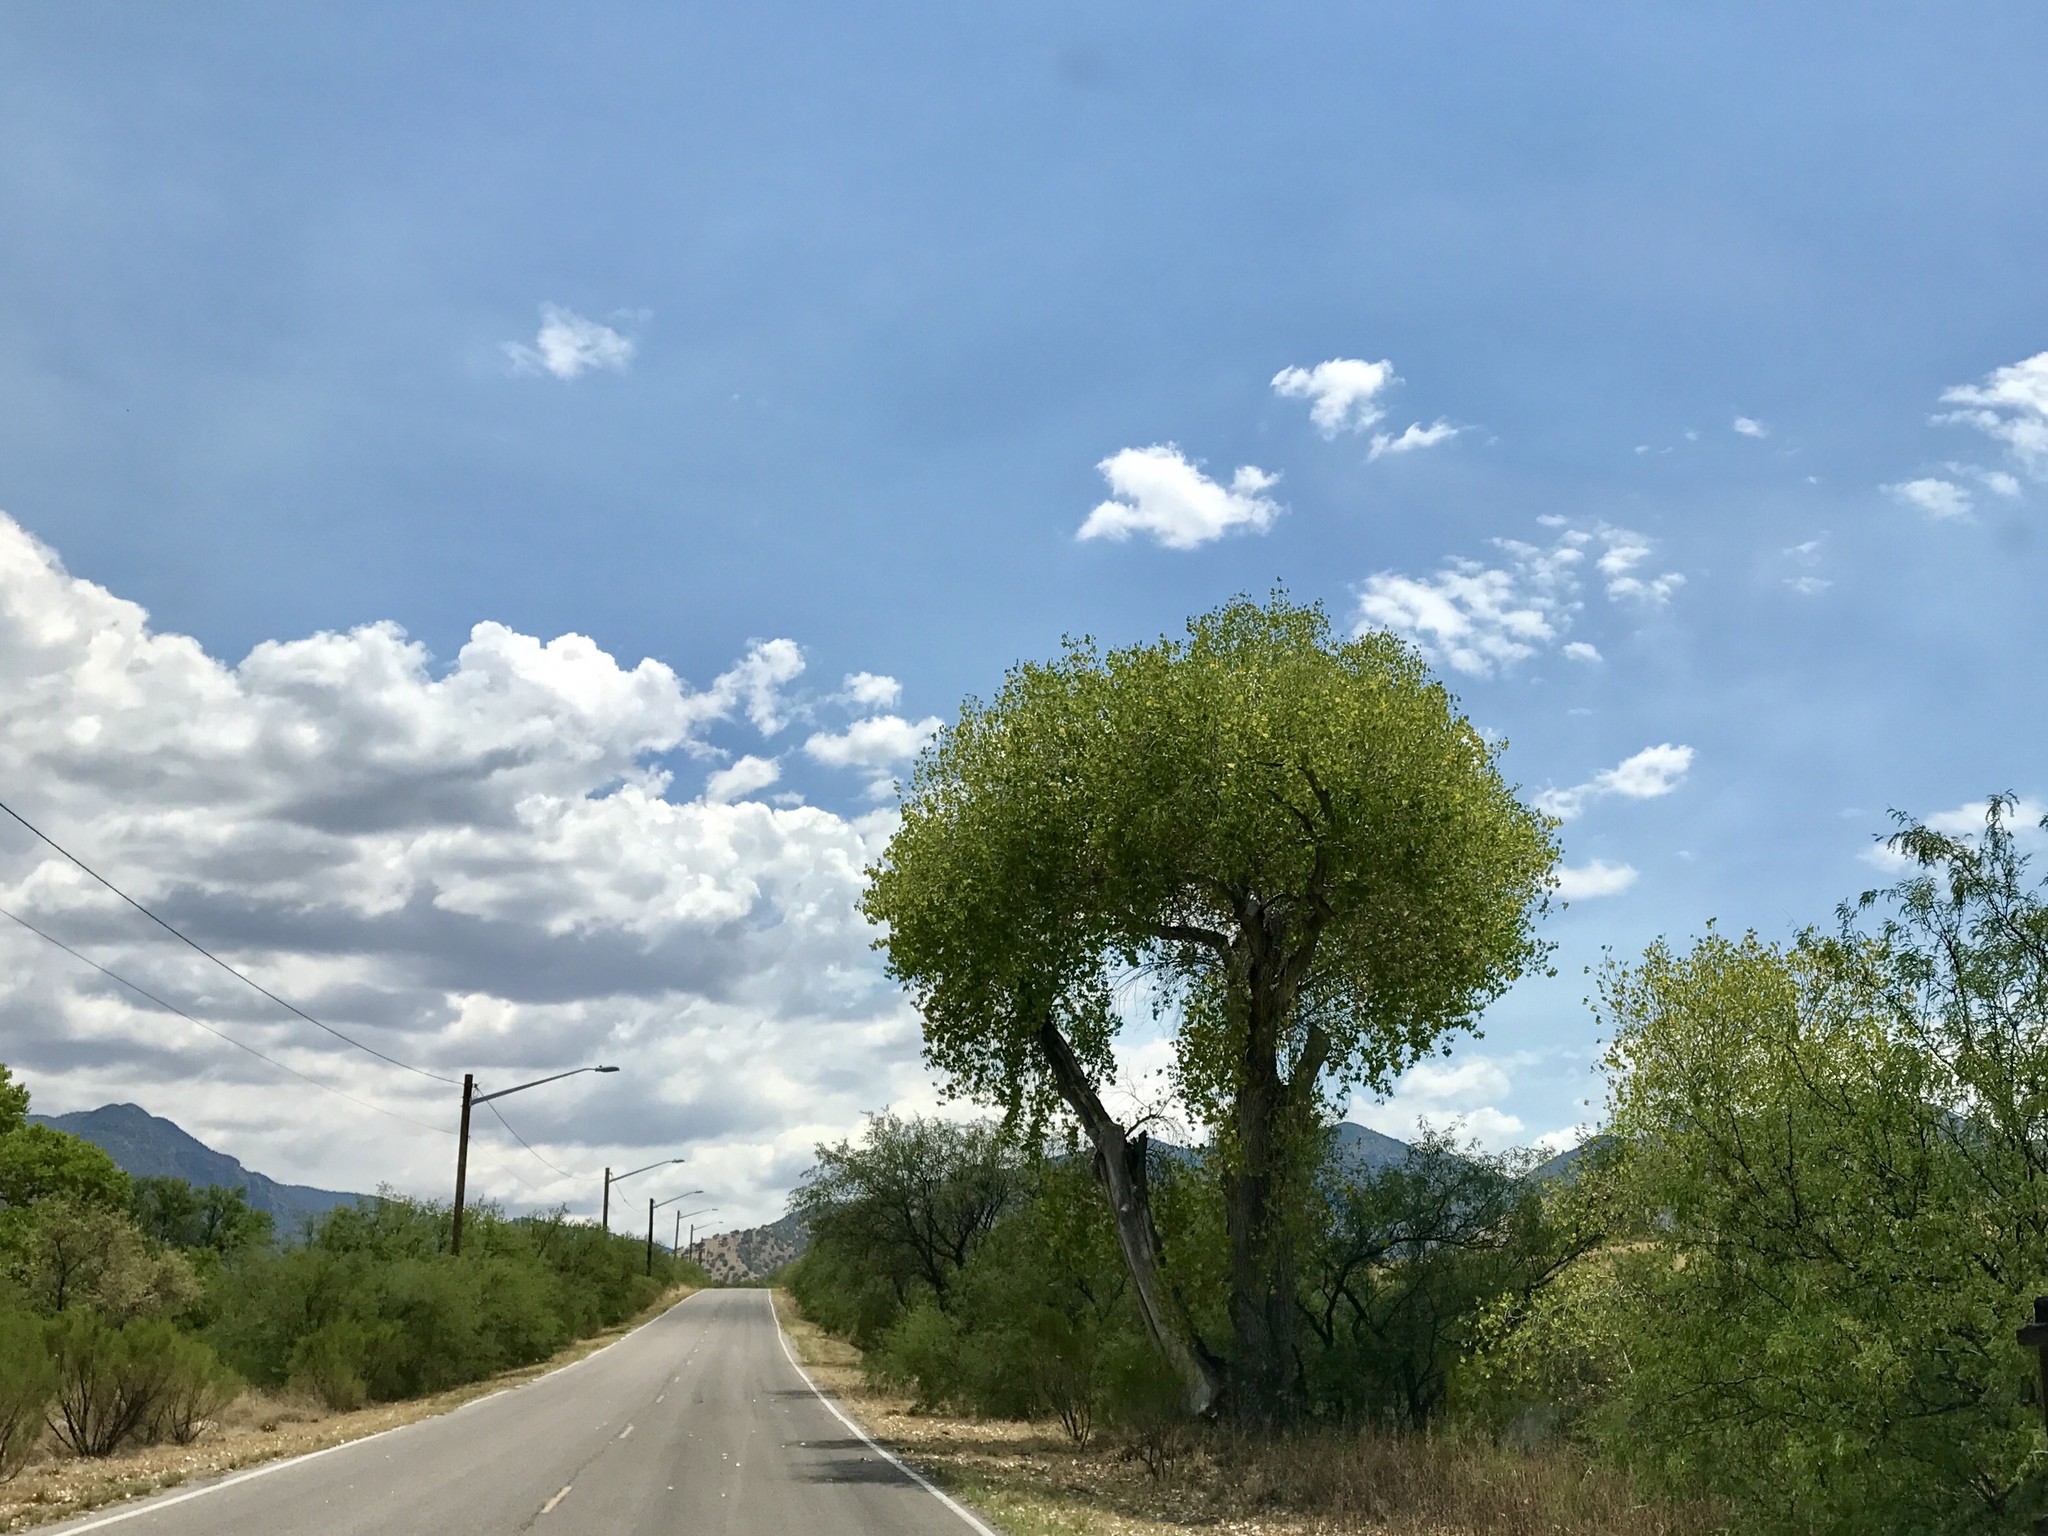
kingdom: Plantae
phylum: Tracheophyta
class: Magnoliopsida
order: Malpighiales
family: Salicaceae
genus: Populus
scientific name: Populus fremontii
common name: Fremont's cottonwood
